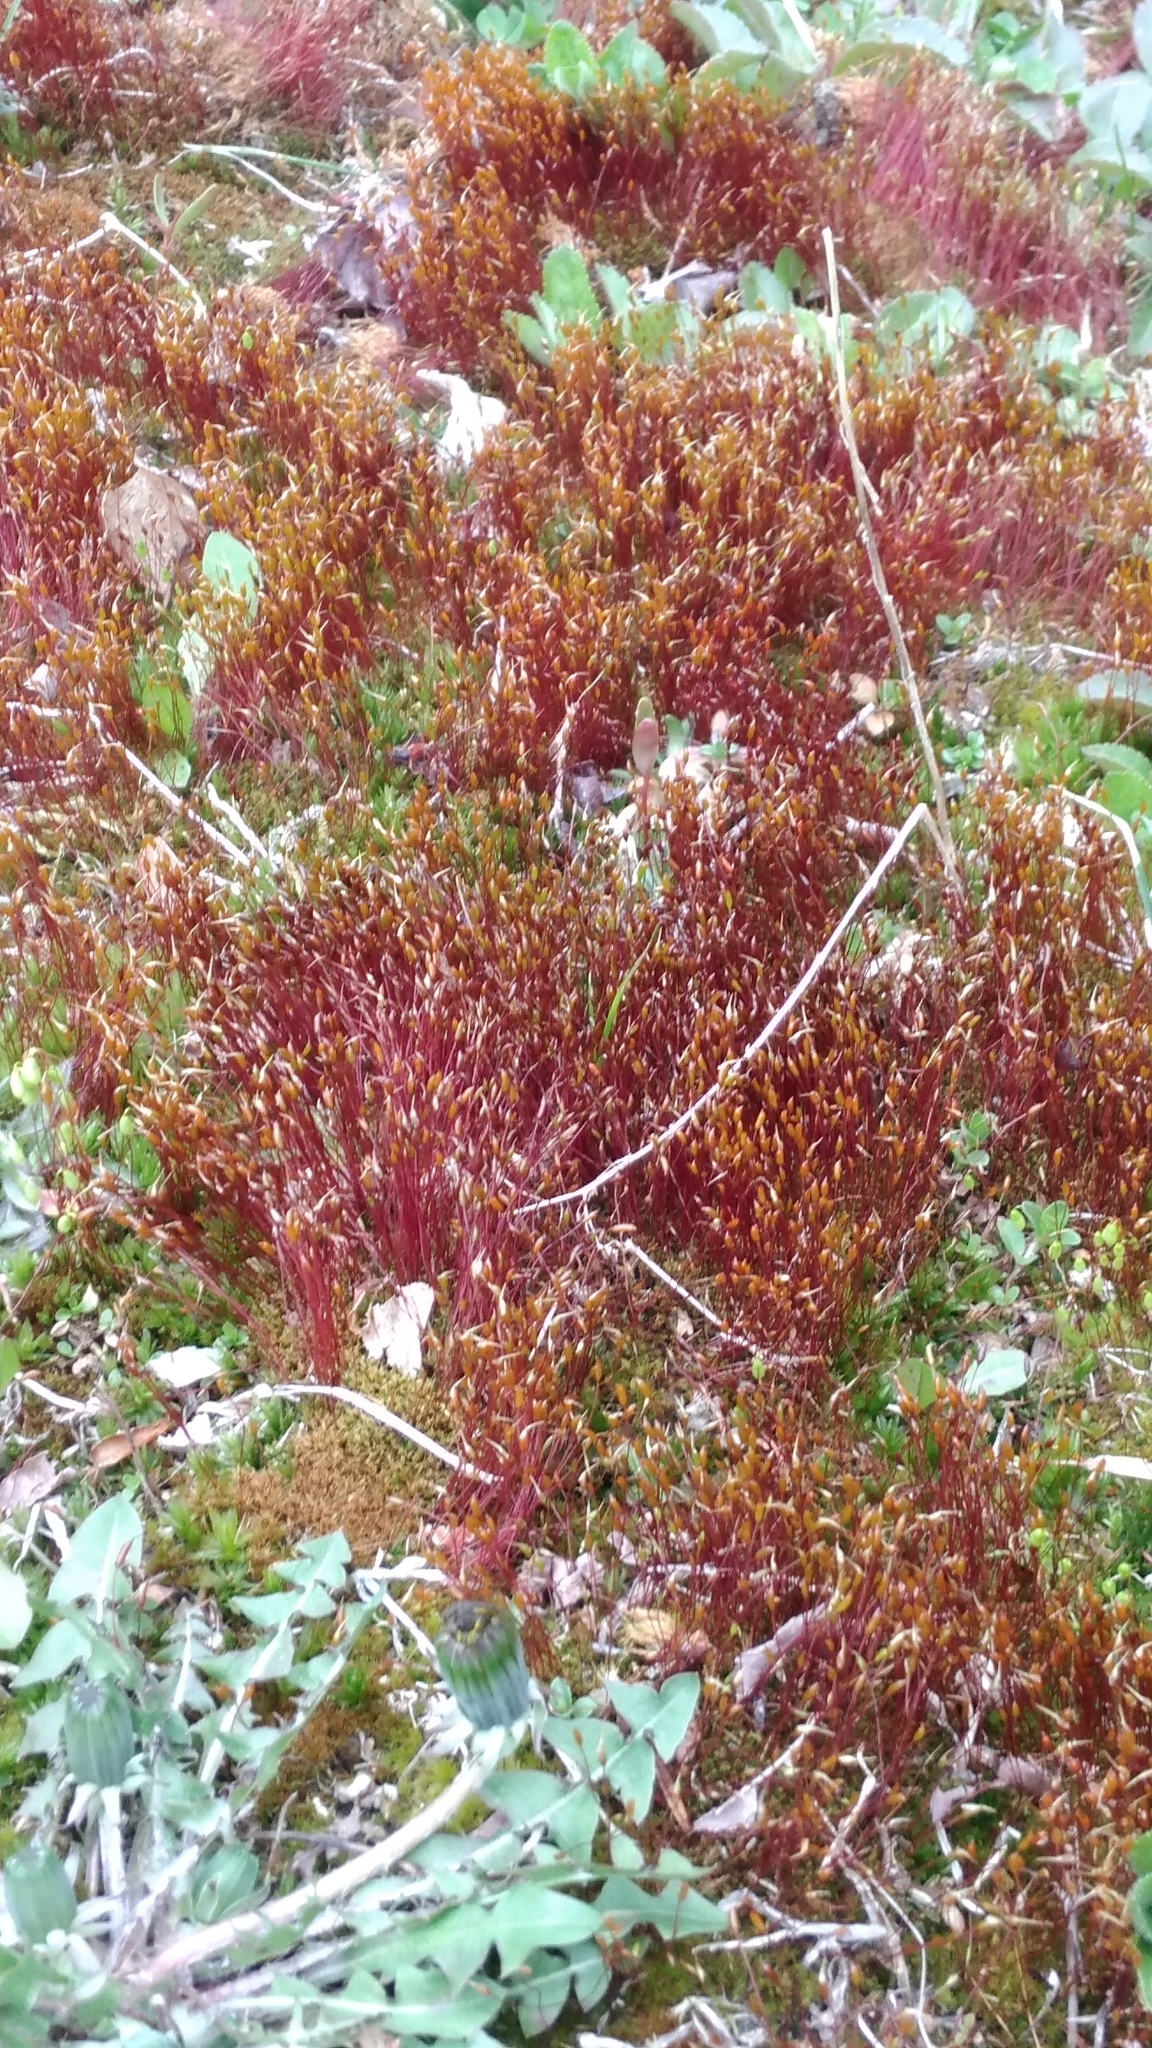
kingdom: Plantae
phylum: Bryophyta
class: Bryopsida
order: Dicranales
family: Ditrichaceae
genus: Ceratodon
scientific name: Ceratodon purpureus
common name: Redshank
